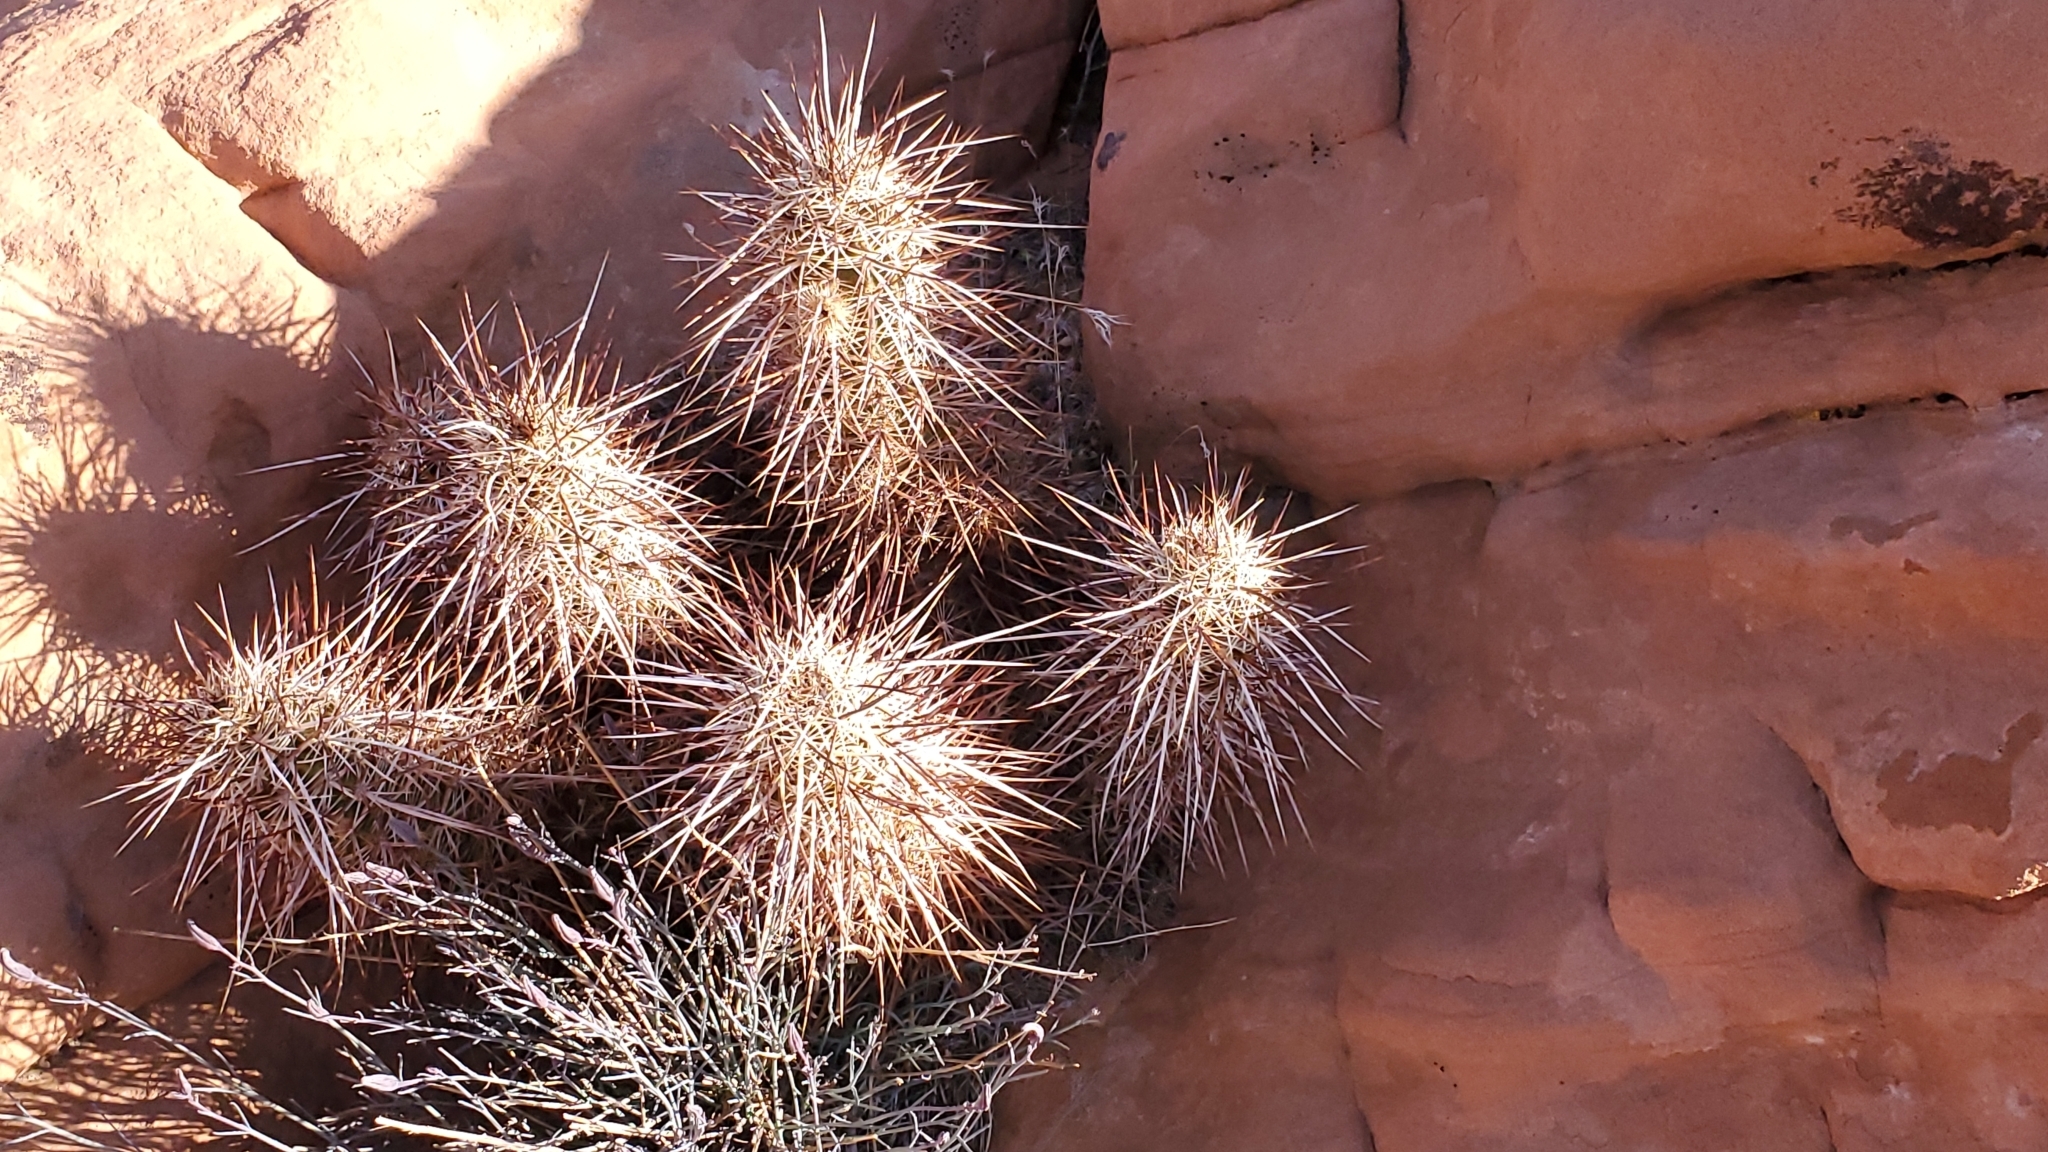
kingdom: Plantae
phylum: Tracheophyta
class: Magnoliopsida
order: Caryophyllales
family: Cactaceae
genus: Echinocereus
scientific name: Echinocereus engelmannii
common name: Engelmann's hedgehog cactus
